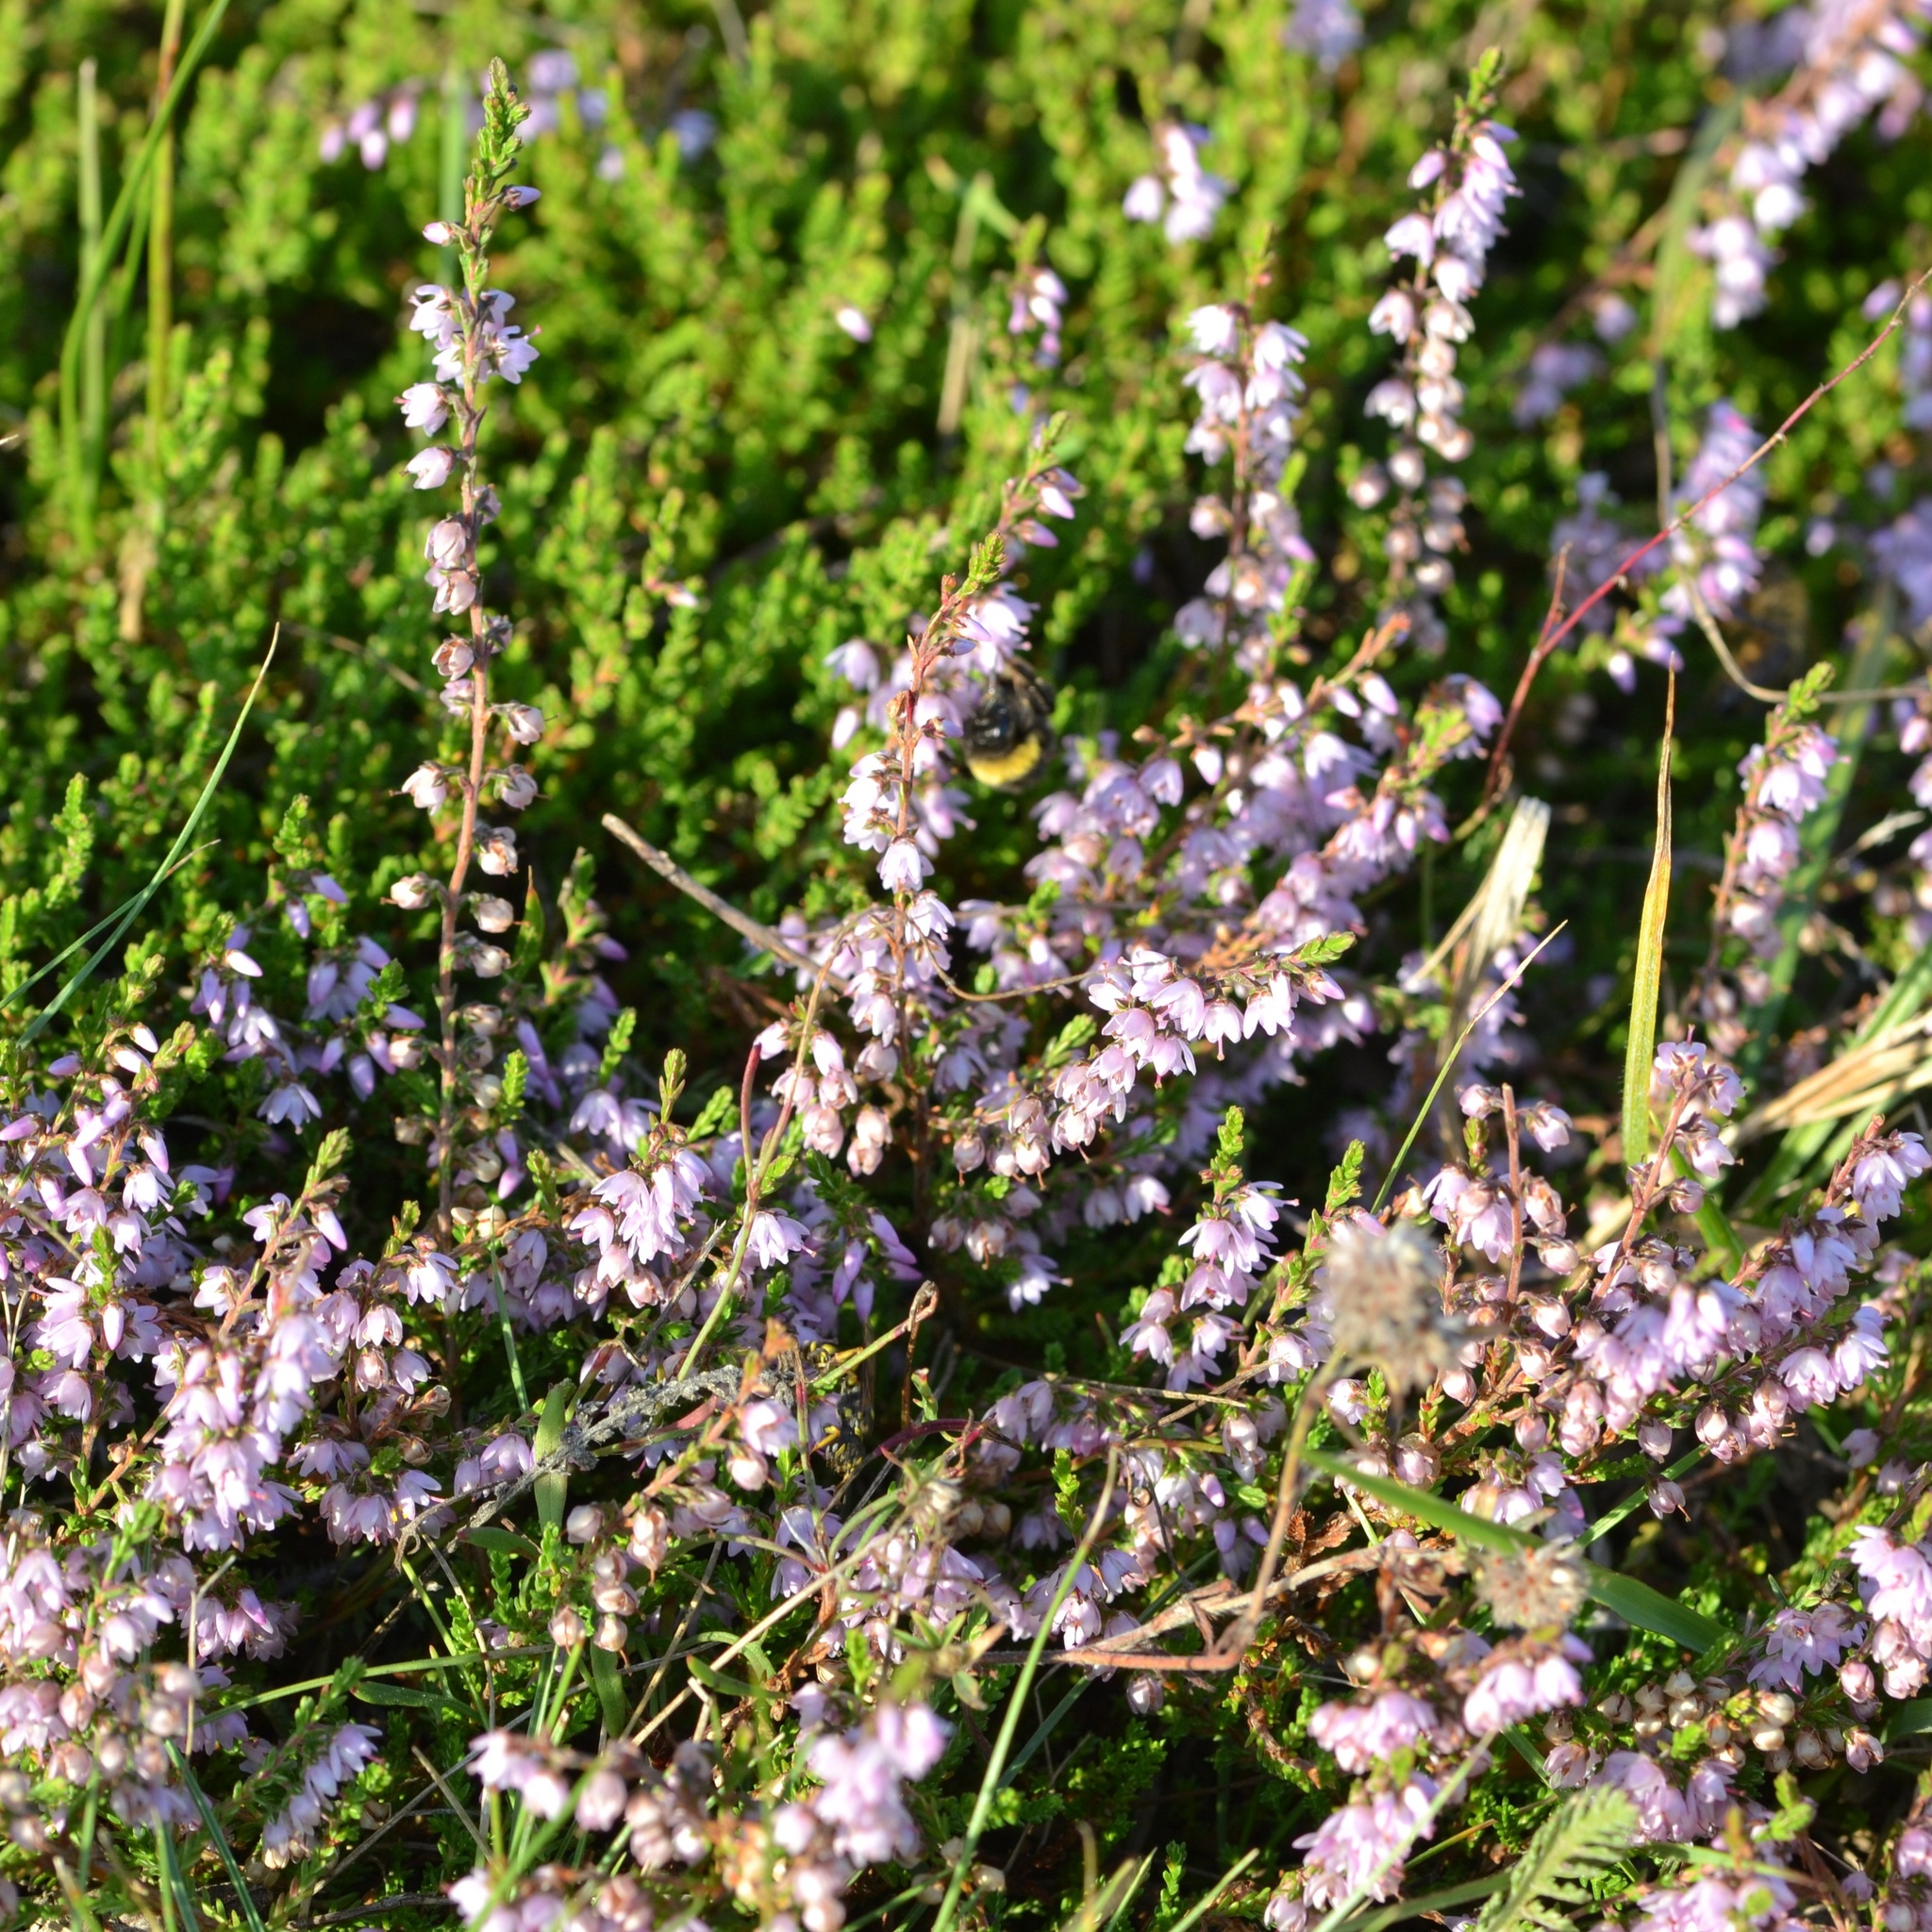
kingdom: Plantae
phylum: Tracheophyta
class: Magnoliopsida
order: Ericales
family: Ericaceae
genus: Calluna
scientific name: Calluna vulgaris
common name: Heather
